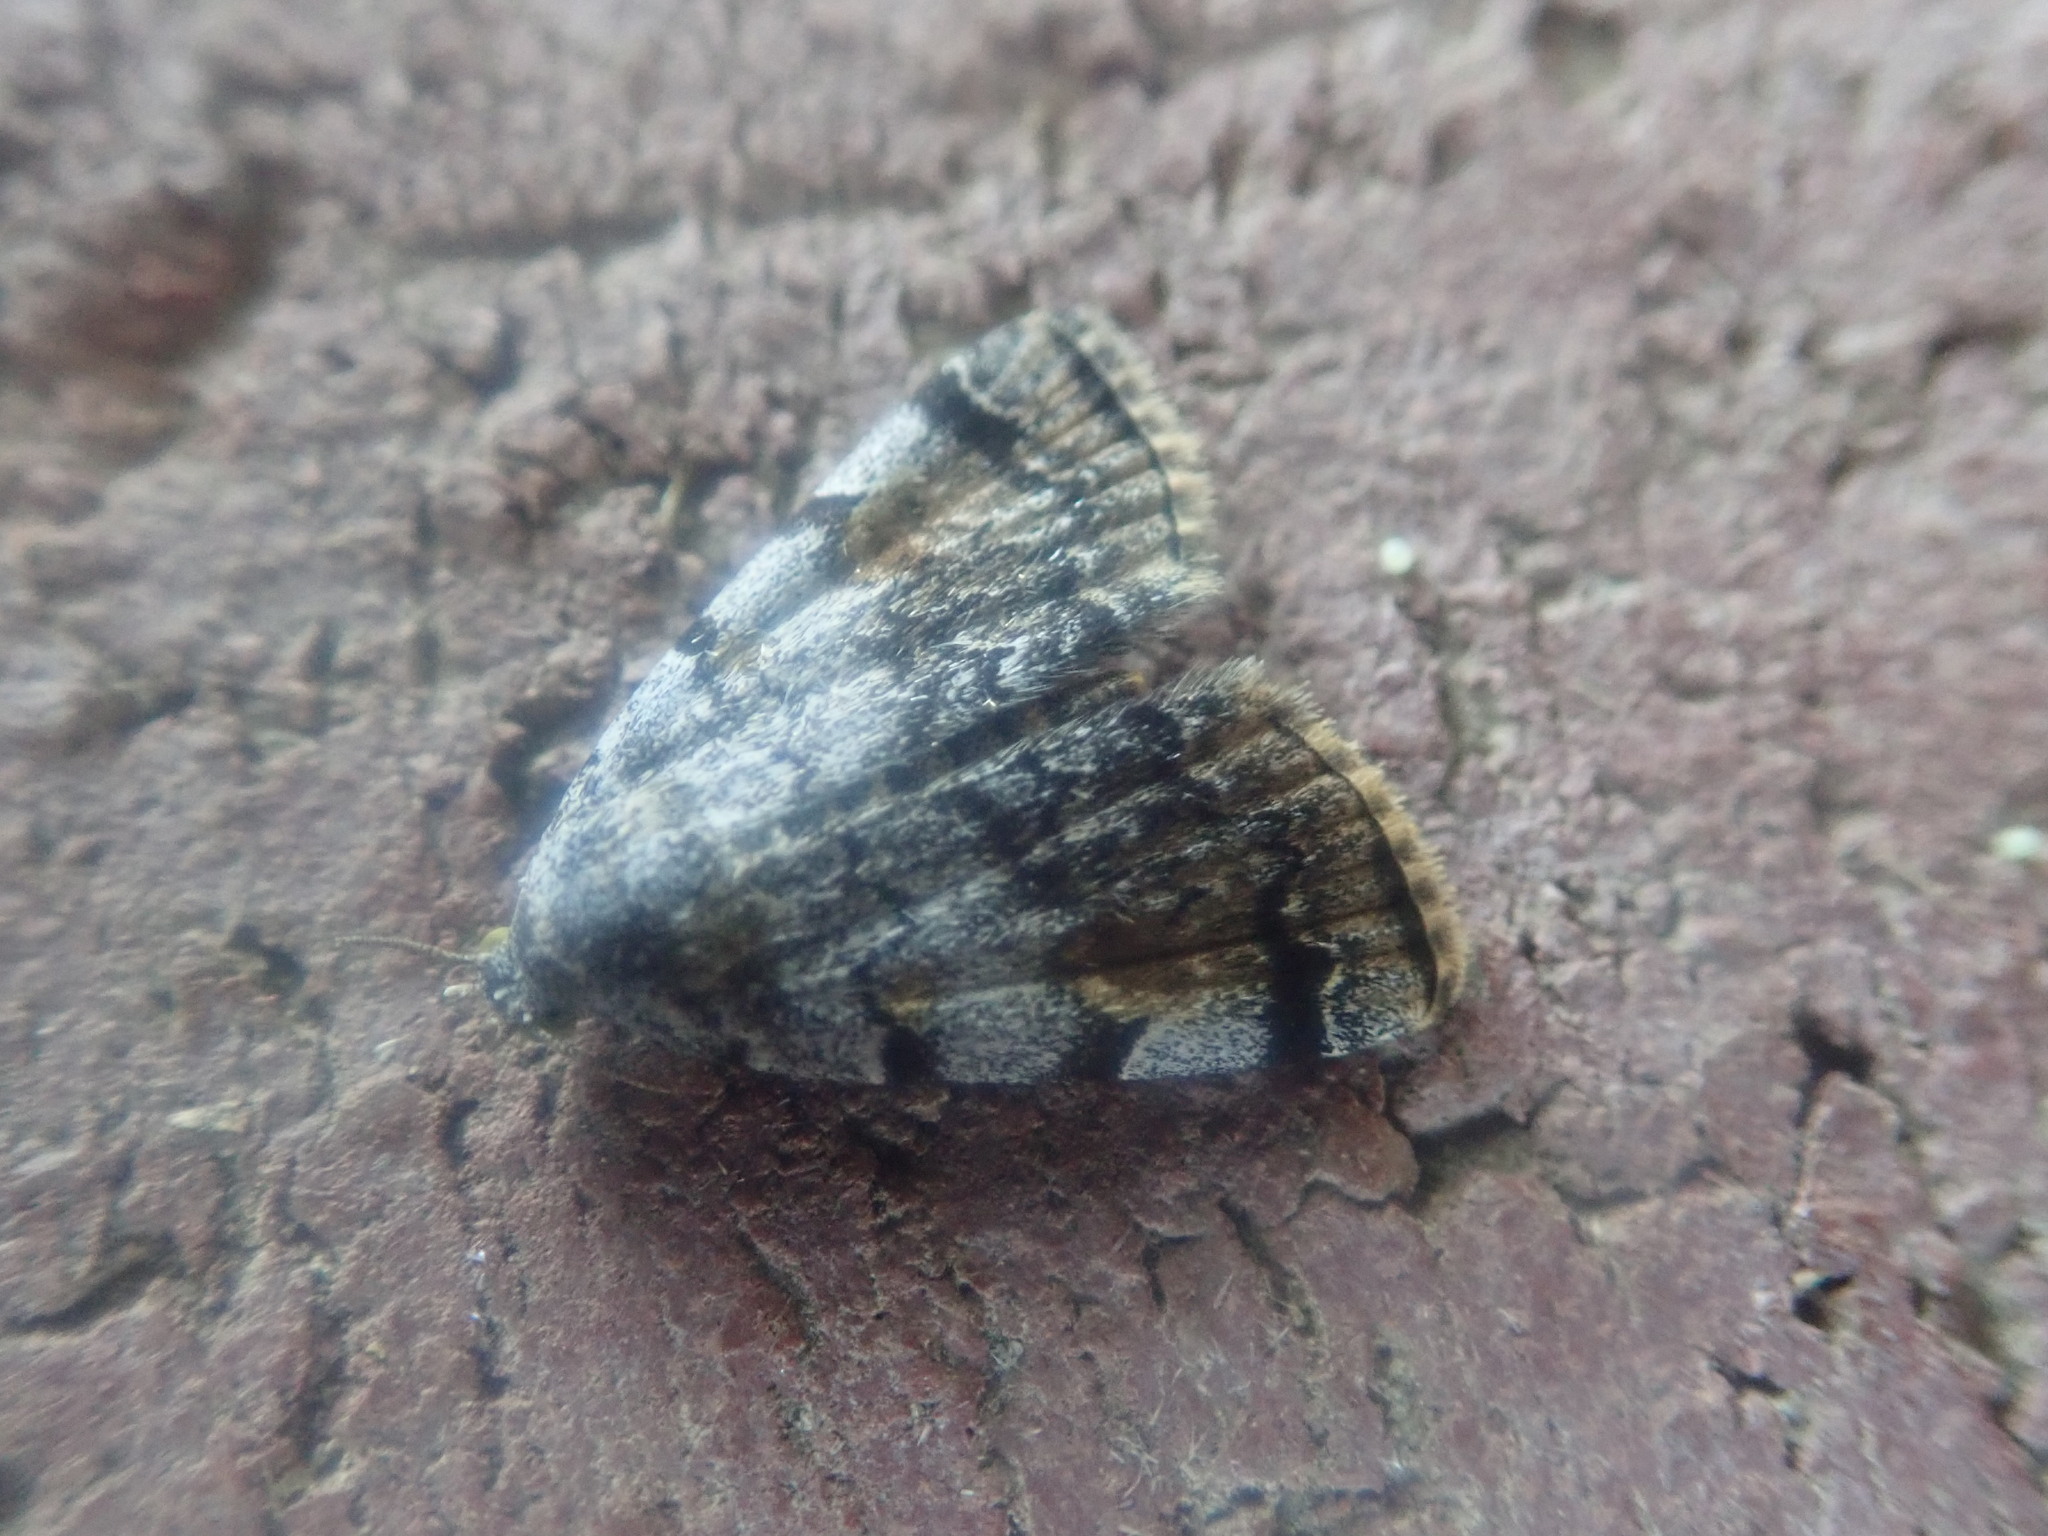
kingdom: Animalia
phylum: Arthropoda
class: Insecta
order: Lepidoptera
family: Erebidae
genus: Idia
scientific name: Idia americalis
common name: American idia moth
